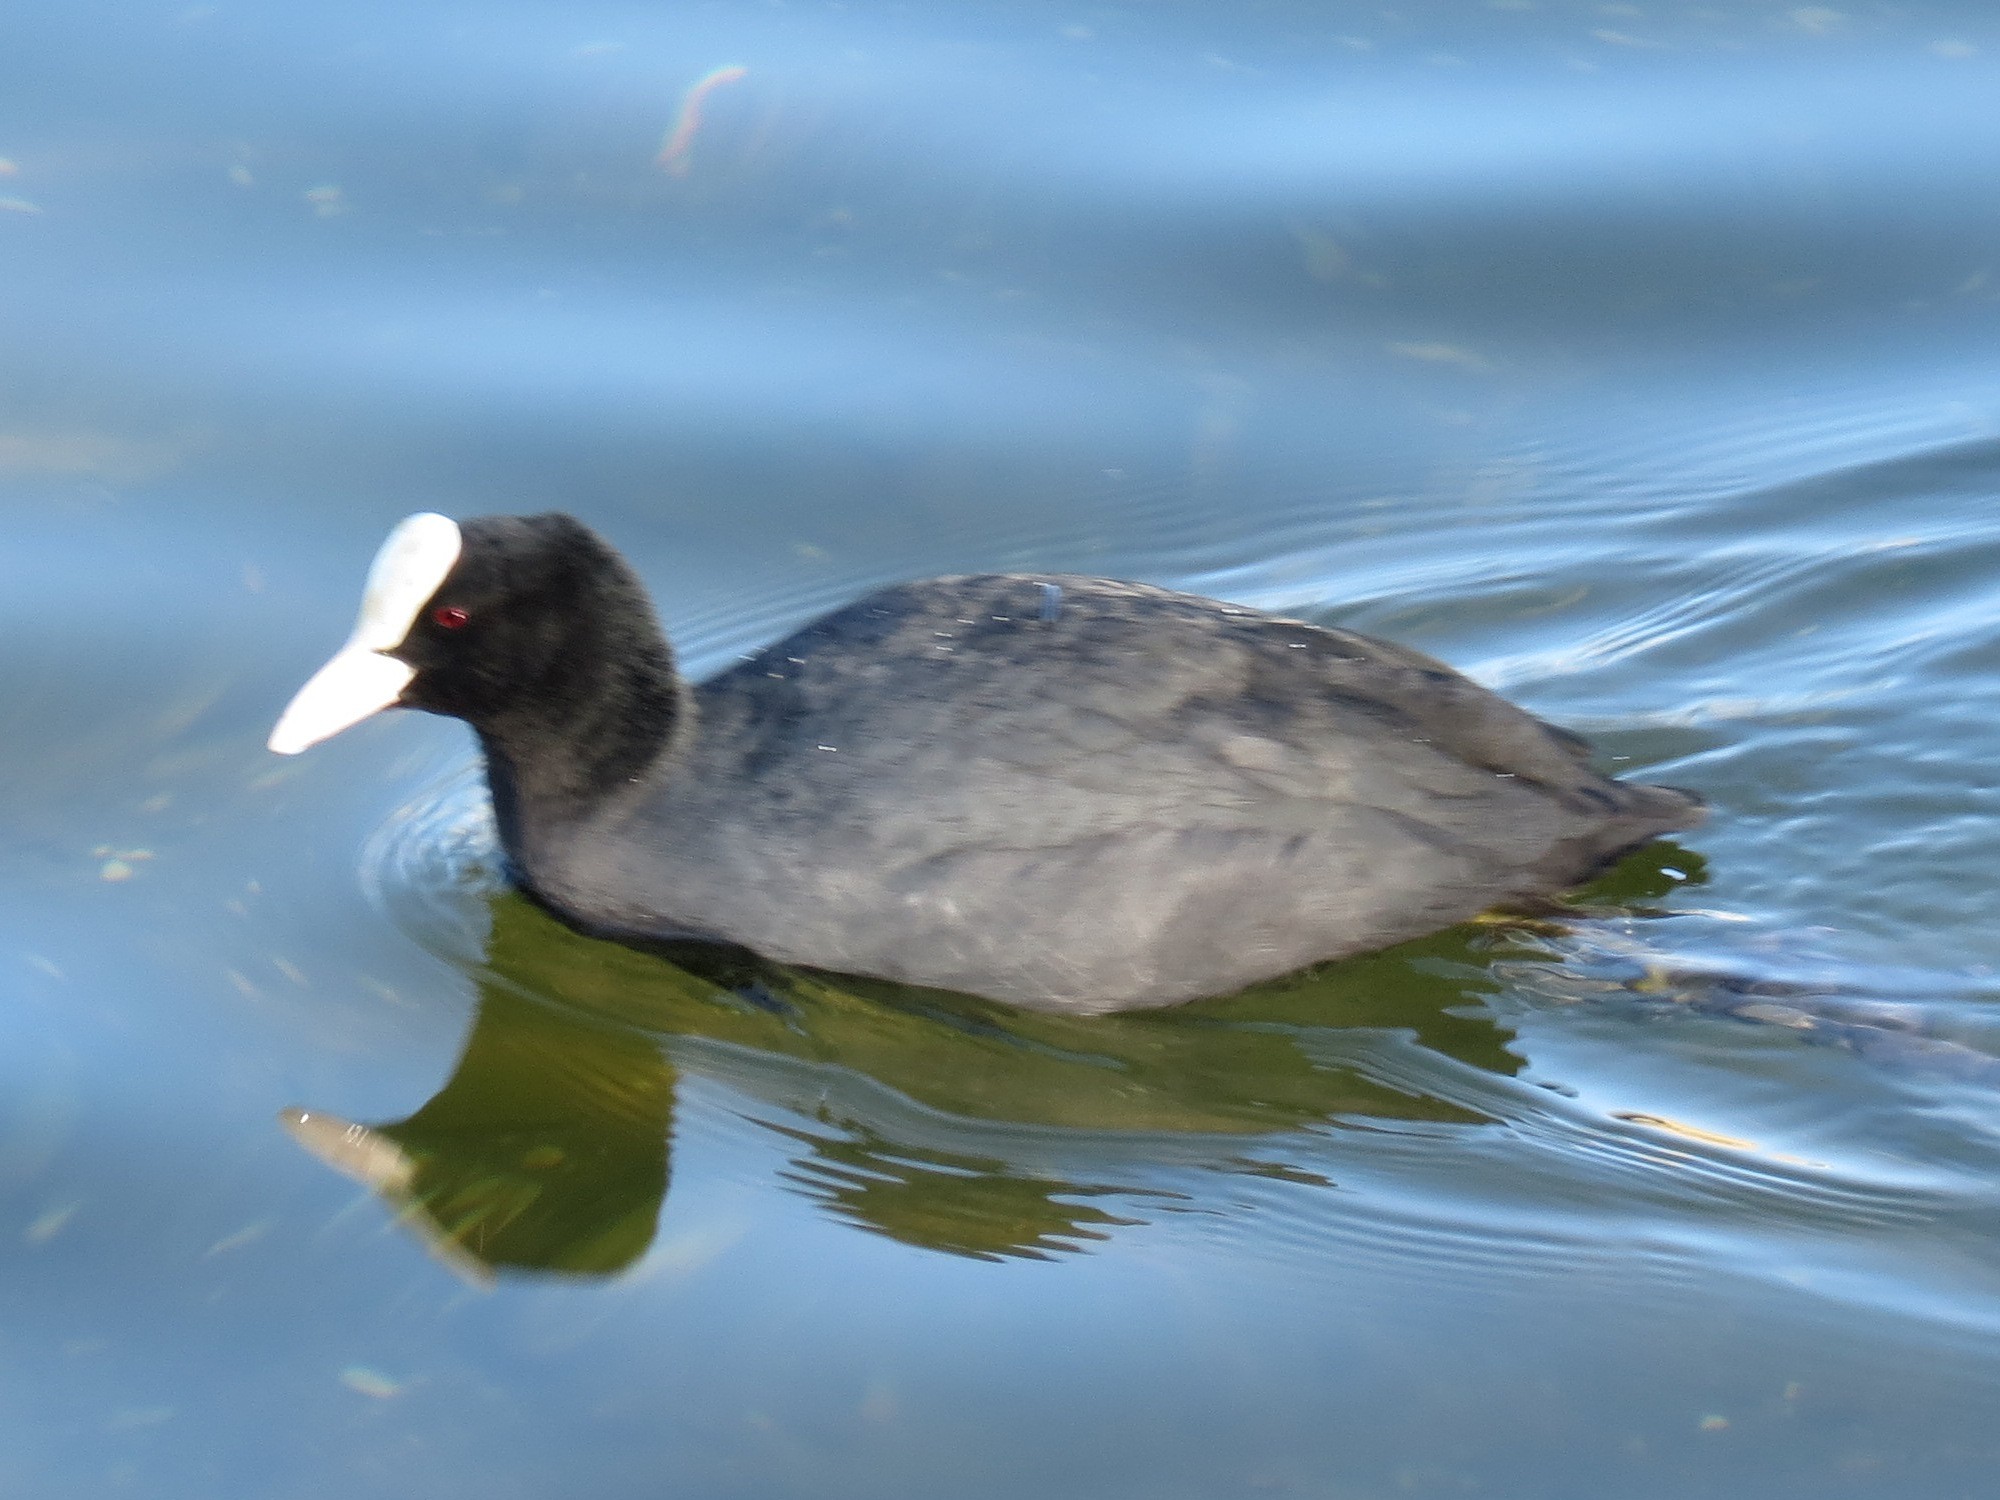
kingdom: Animalia
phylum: Chordata
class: Aves
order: Gruiformes
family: Rallidae
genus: Fulica
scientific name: Fulica atra
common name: Eurasian coot
